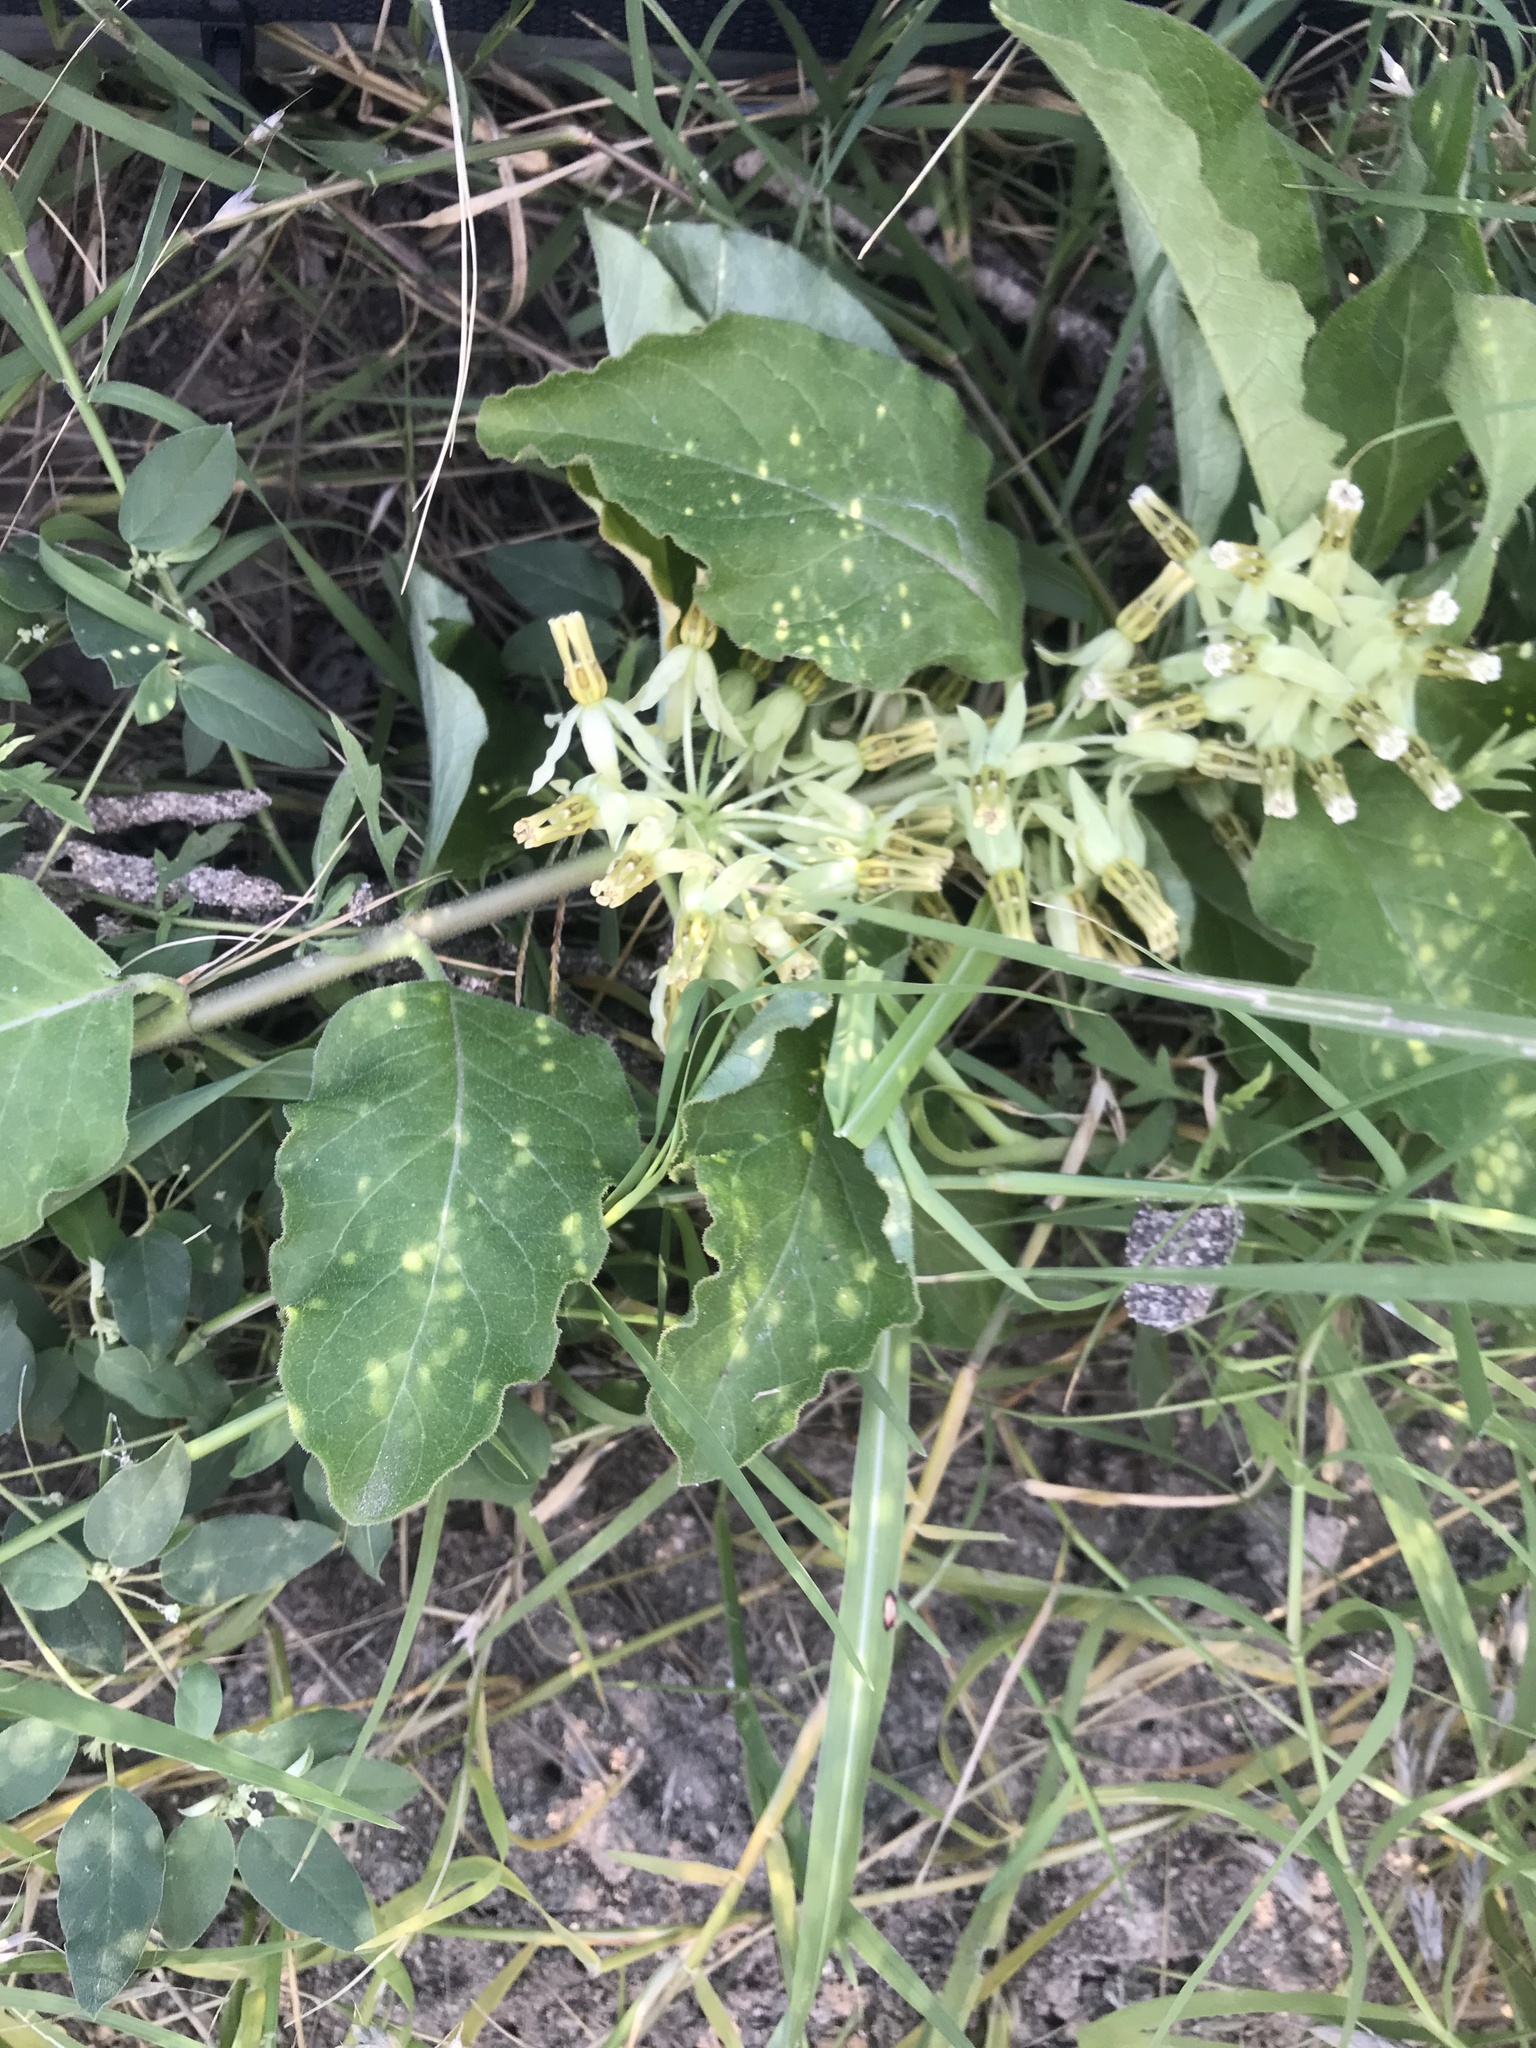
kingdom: Plantae
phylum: Tracheophyta
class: Magnoliopsida
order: Gentianales
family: Apocynaceae
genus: Asclepias
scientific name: Asclepias oenotheroides
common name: Zizotes milkweed
